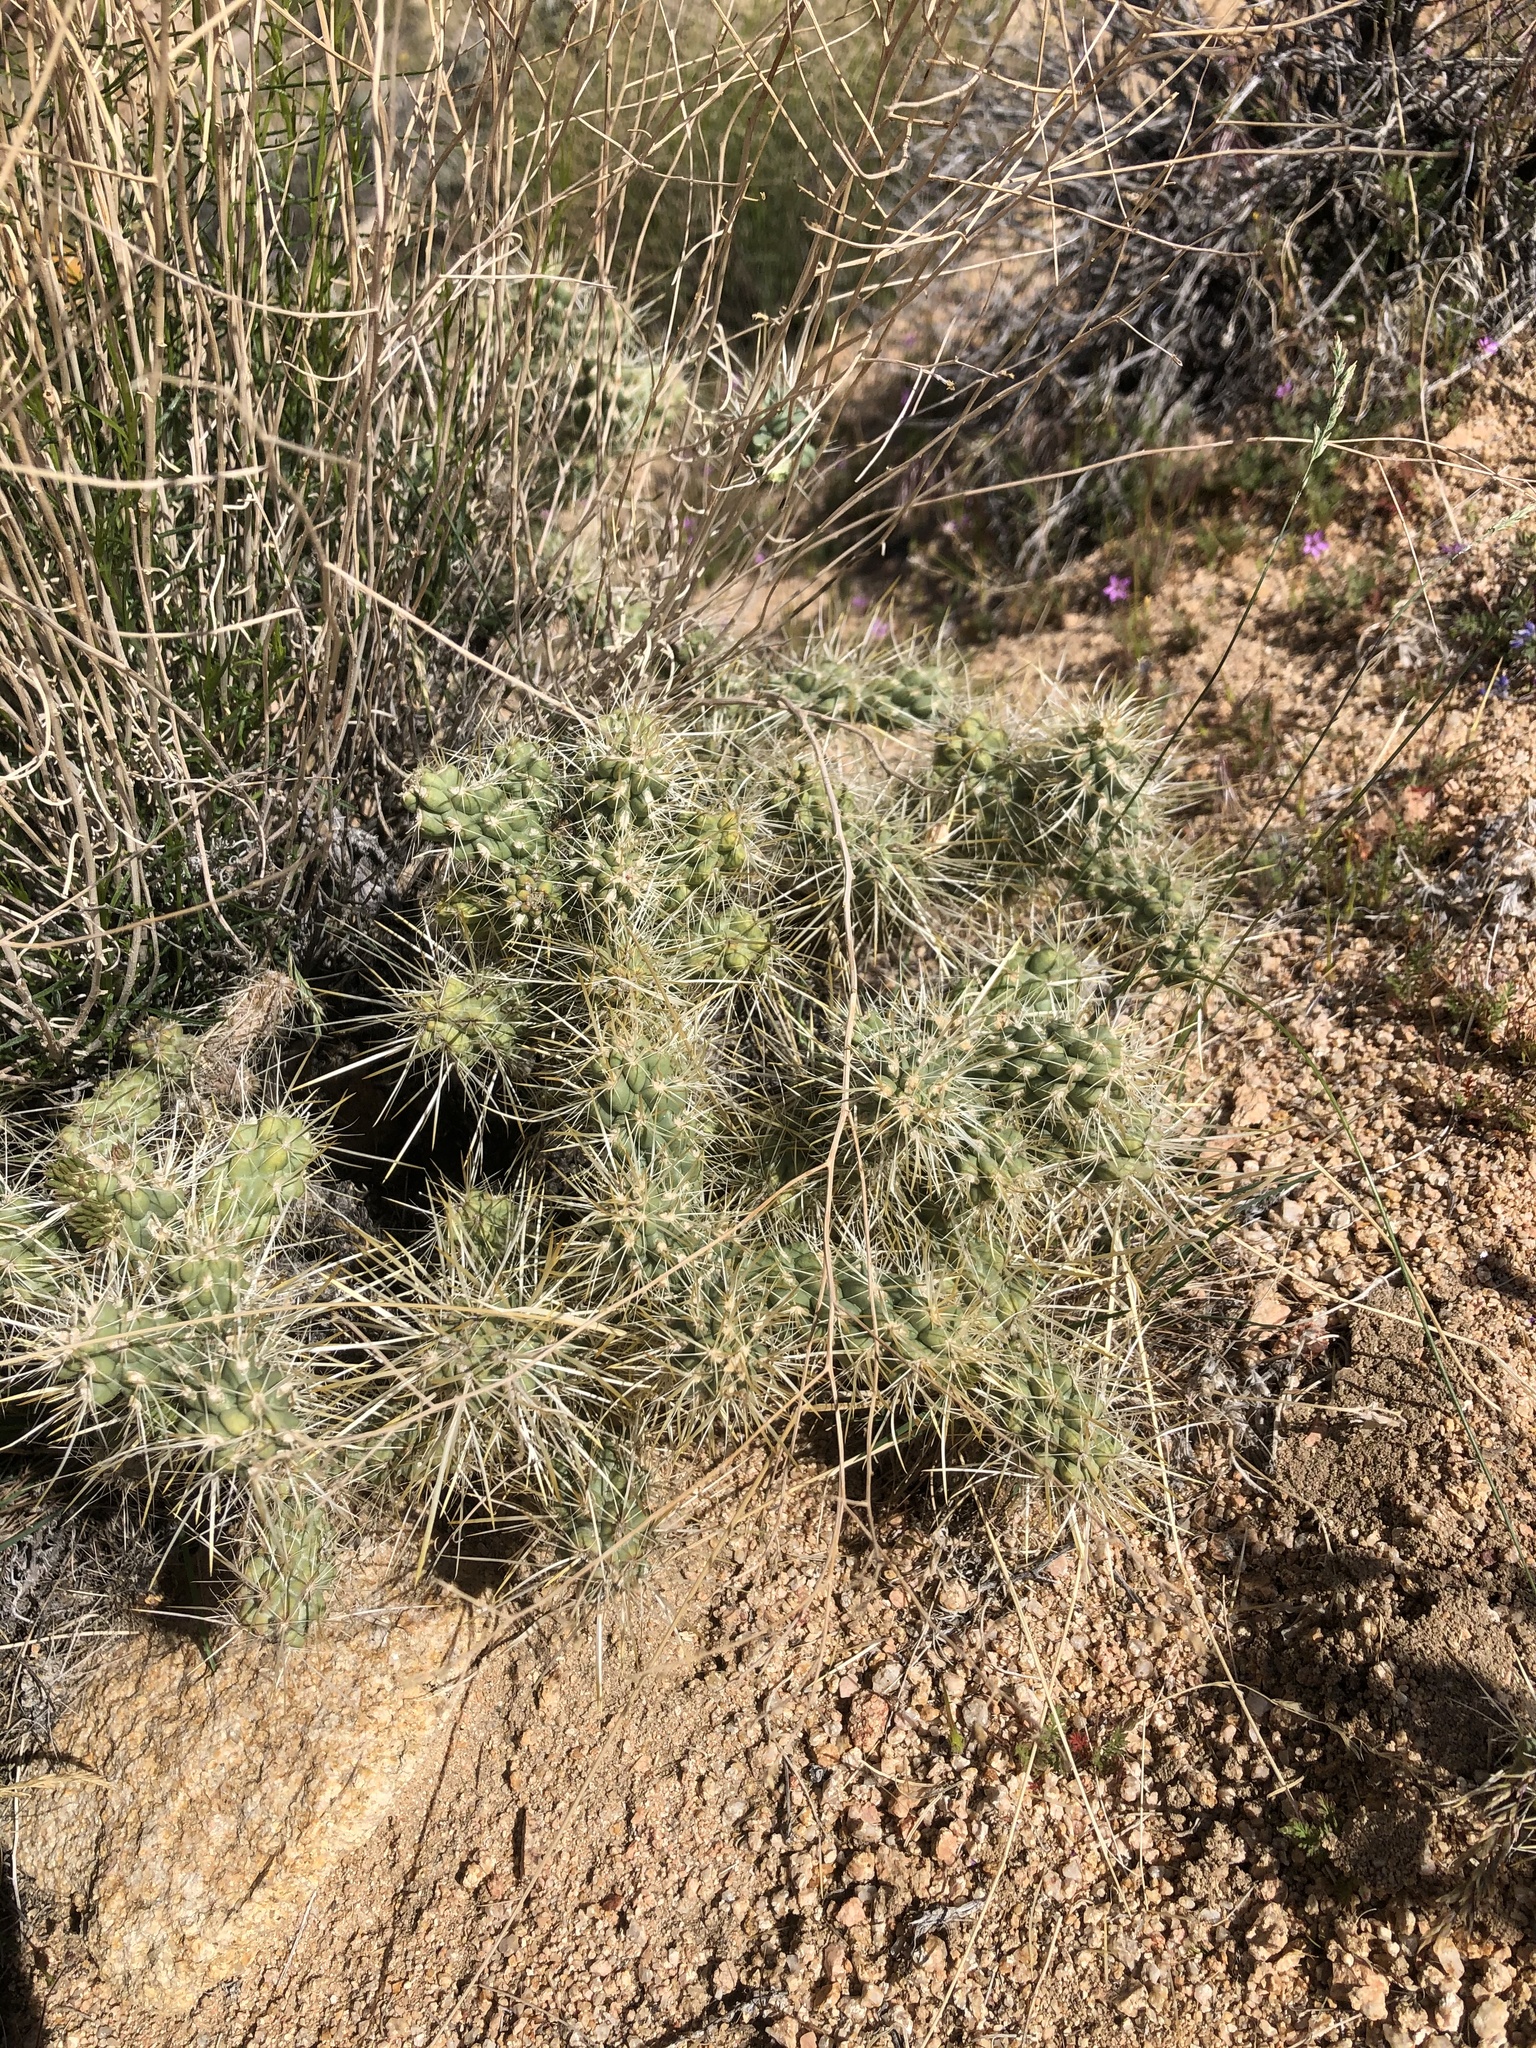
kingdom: Plantae
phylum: Tracheophyta
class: Magnoliopsida
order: Caryophyllales
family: Cactaceae
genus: Cylindropuntia
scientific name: Cylindropuntia echinocarpa
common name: Ground cholla
